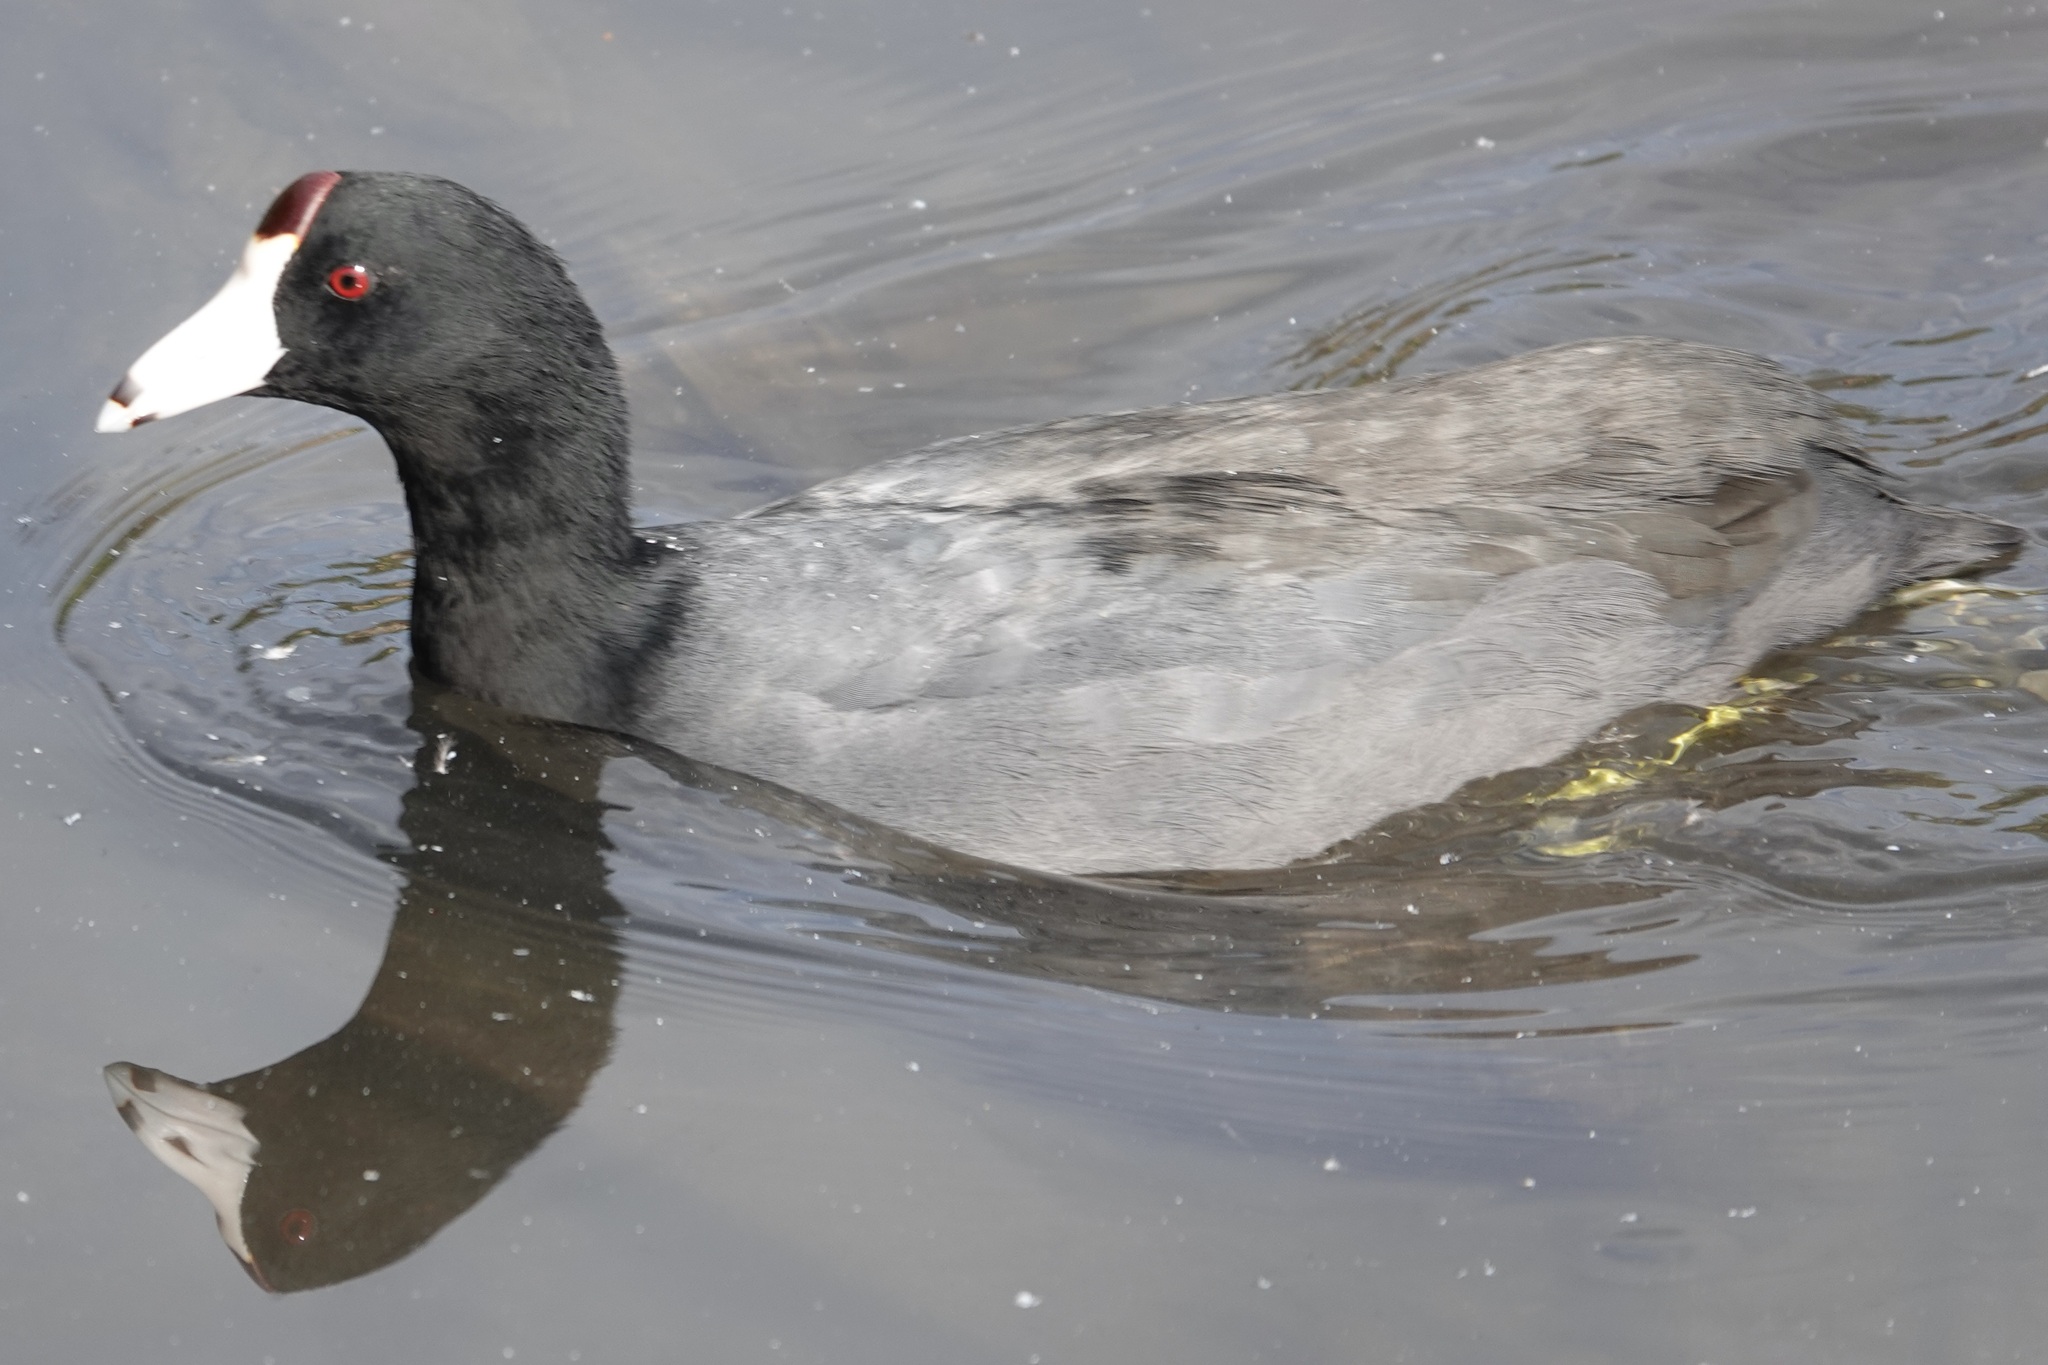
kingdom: Animalia
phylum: Chordata
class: Aves
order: Gruiformes
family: Rallidae
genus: Fulica
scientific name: Fulica americana
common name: American coot
